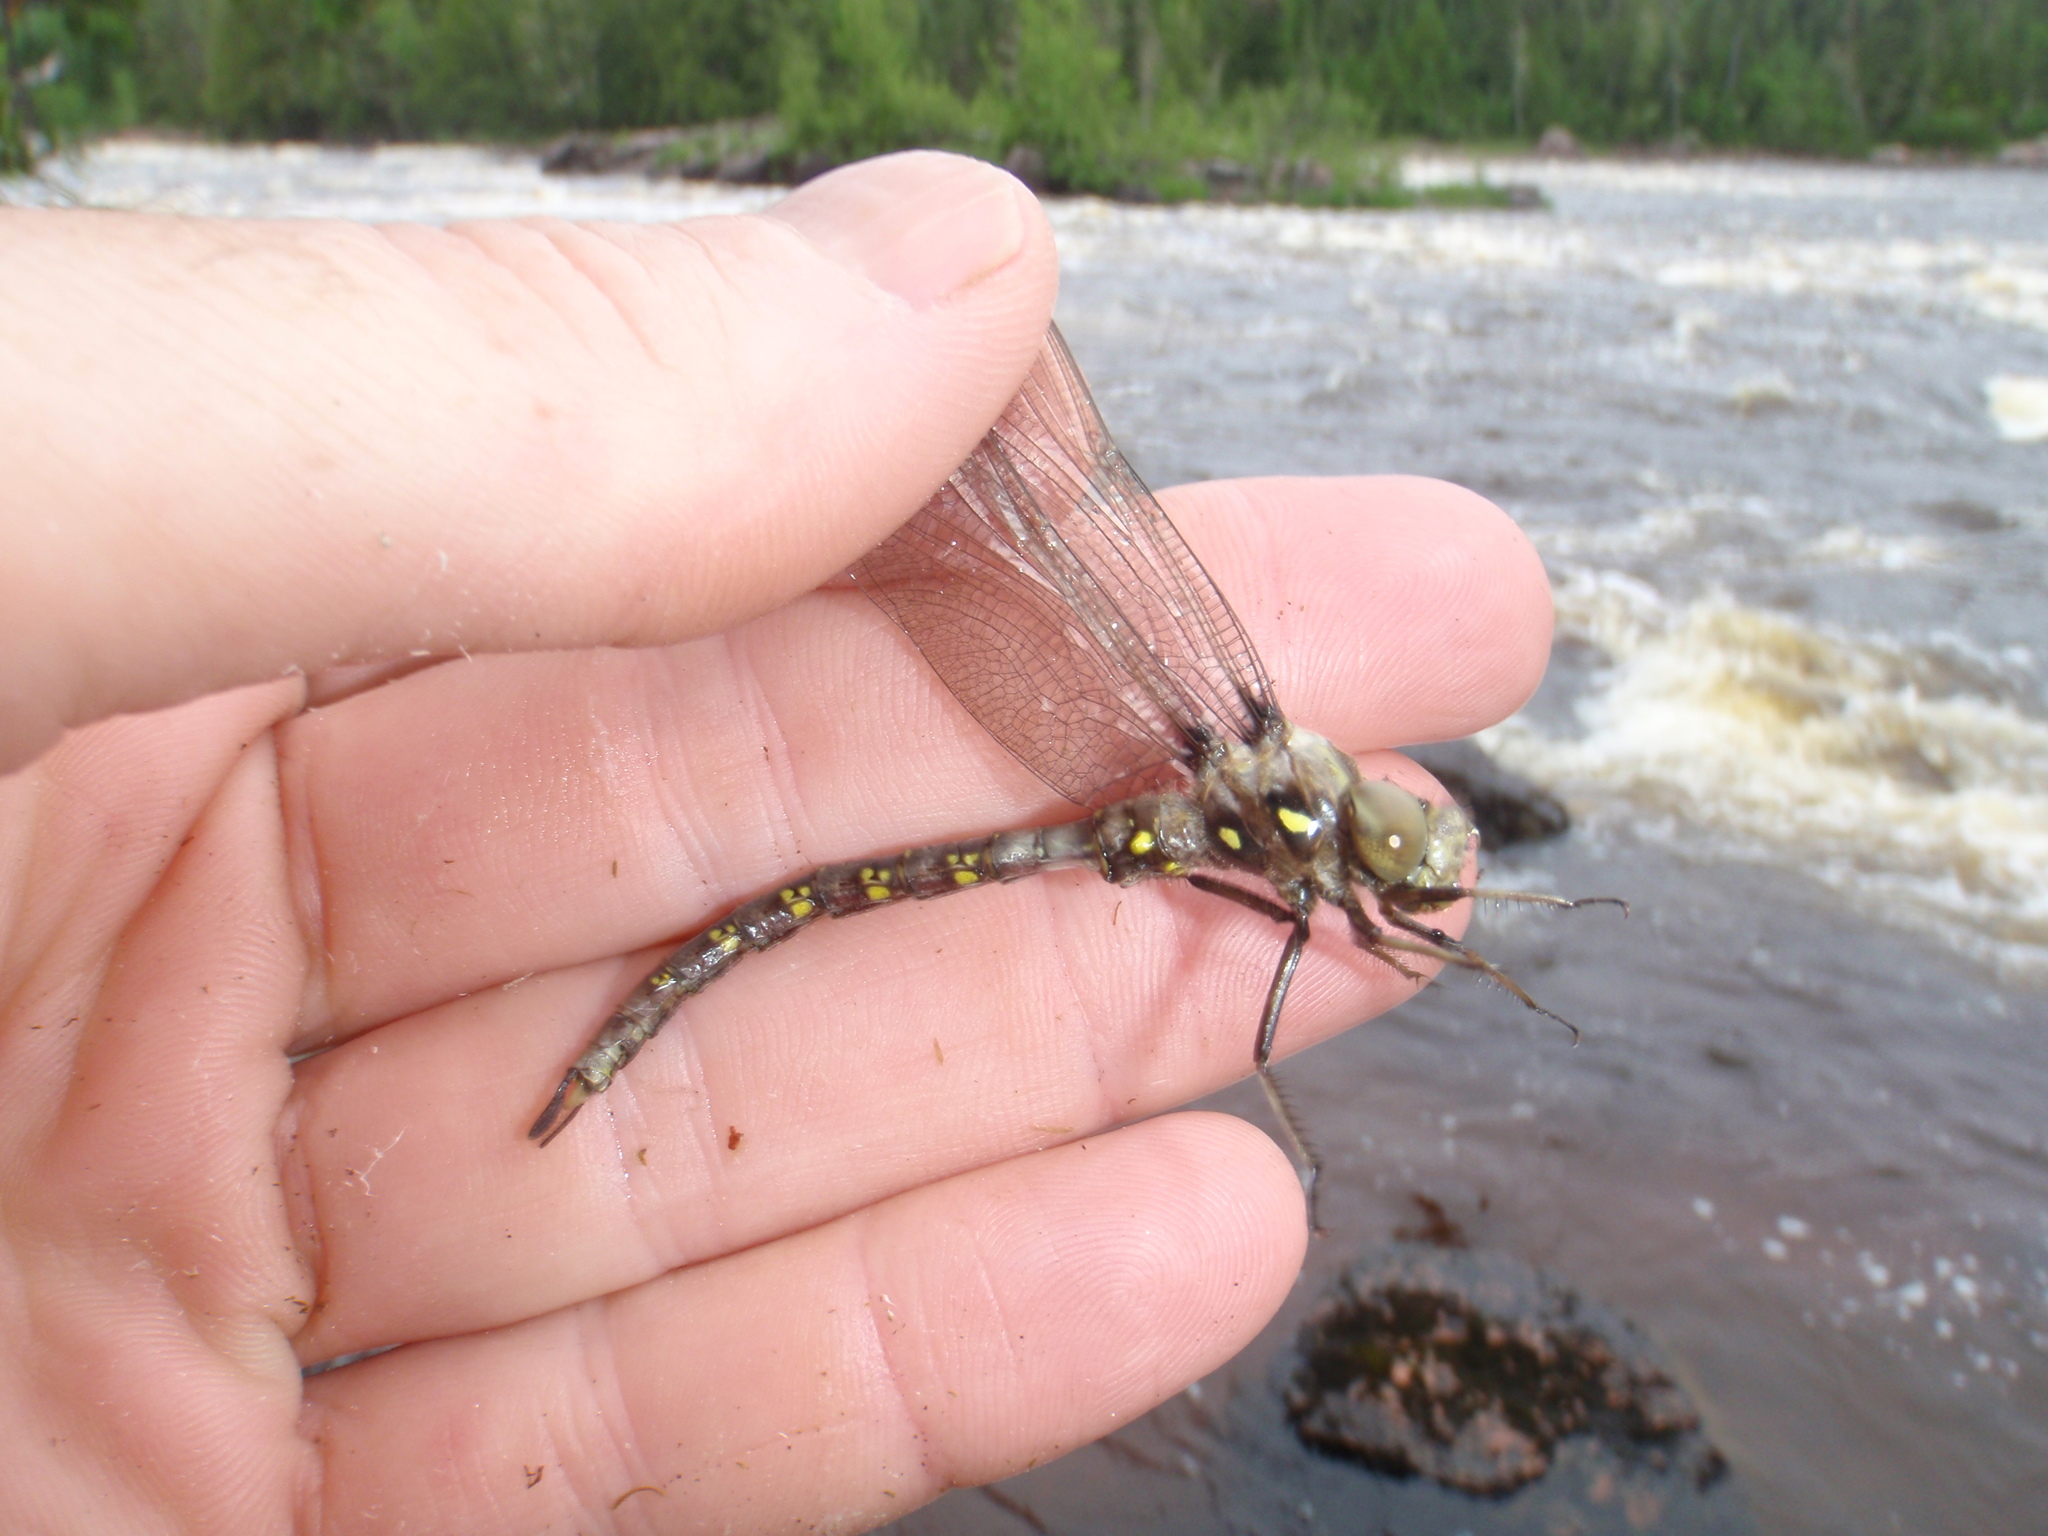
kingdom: Animalia
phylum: Arthropoda
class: Insecta
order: Odonata
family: Aeshnidae
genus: Boyeria
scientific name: Boyeria vinosa
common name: Fawn darner
